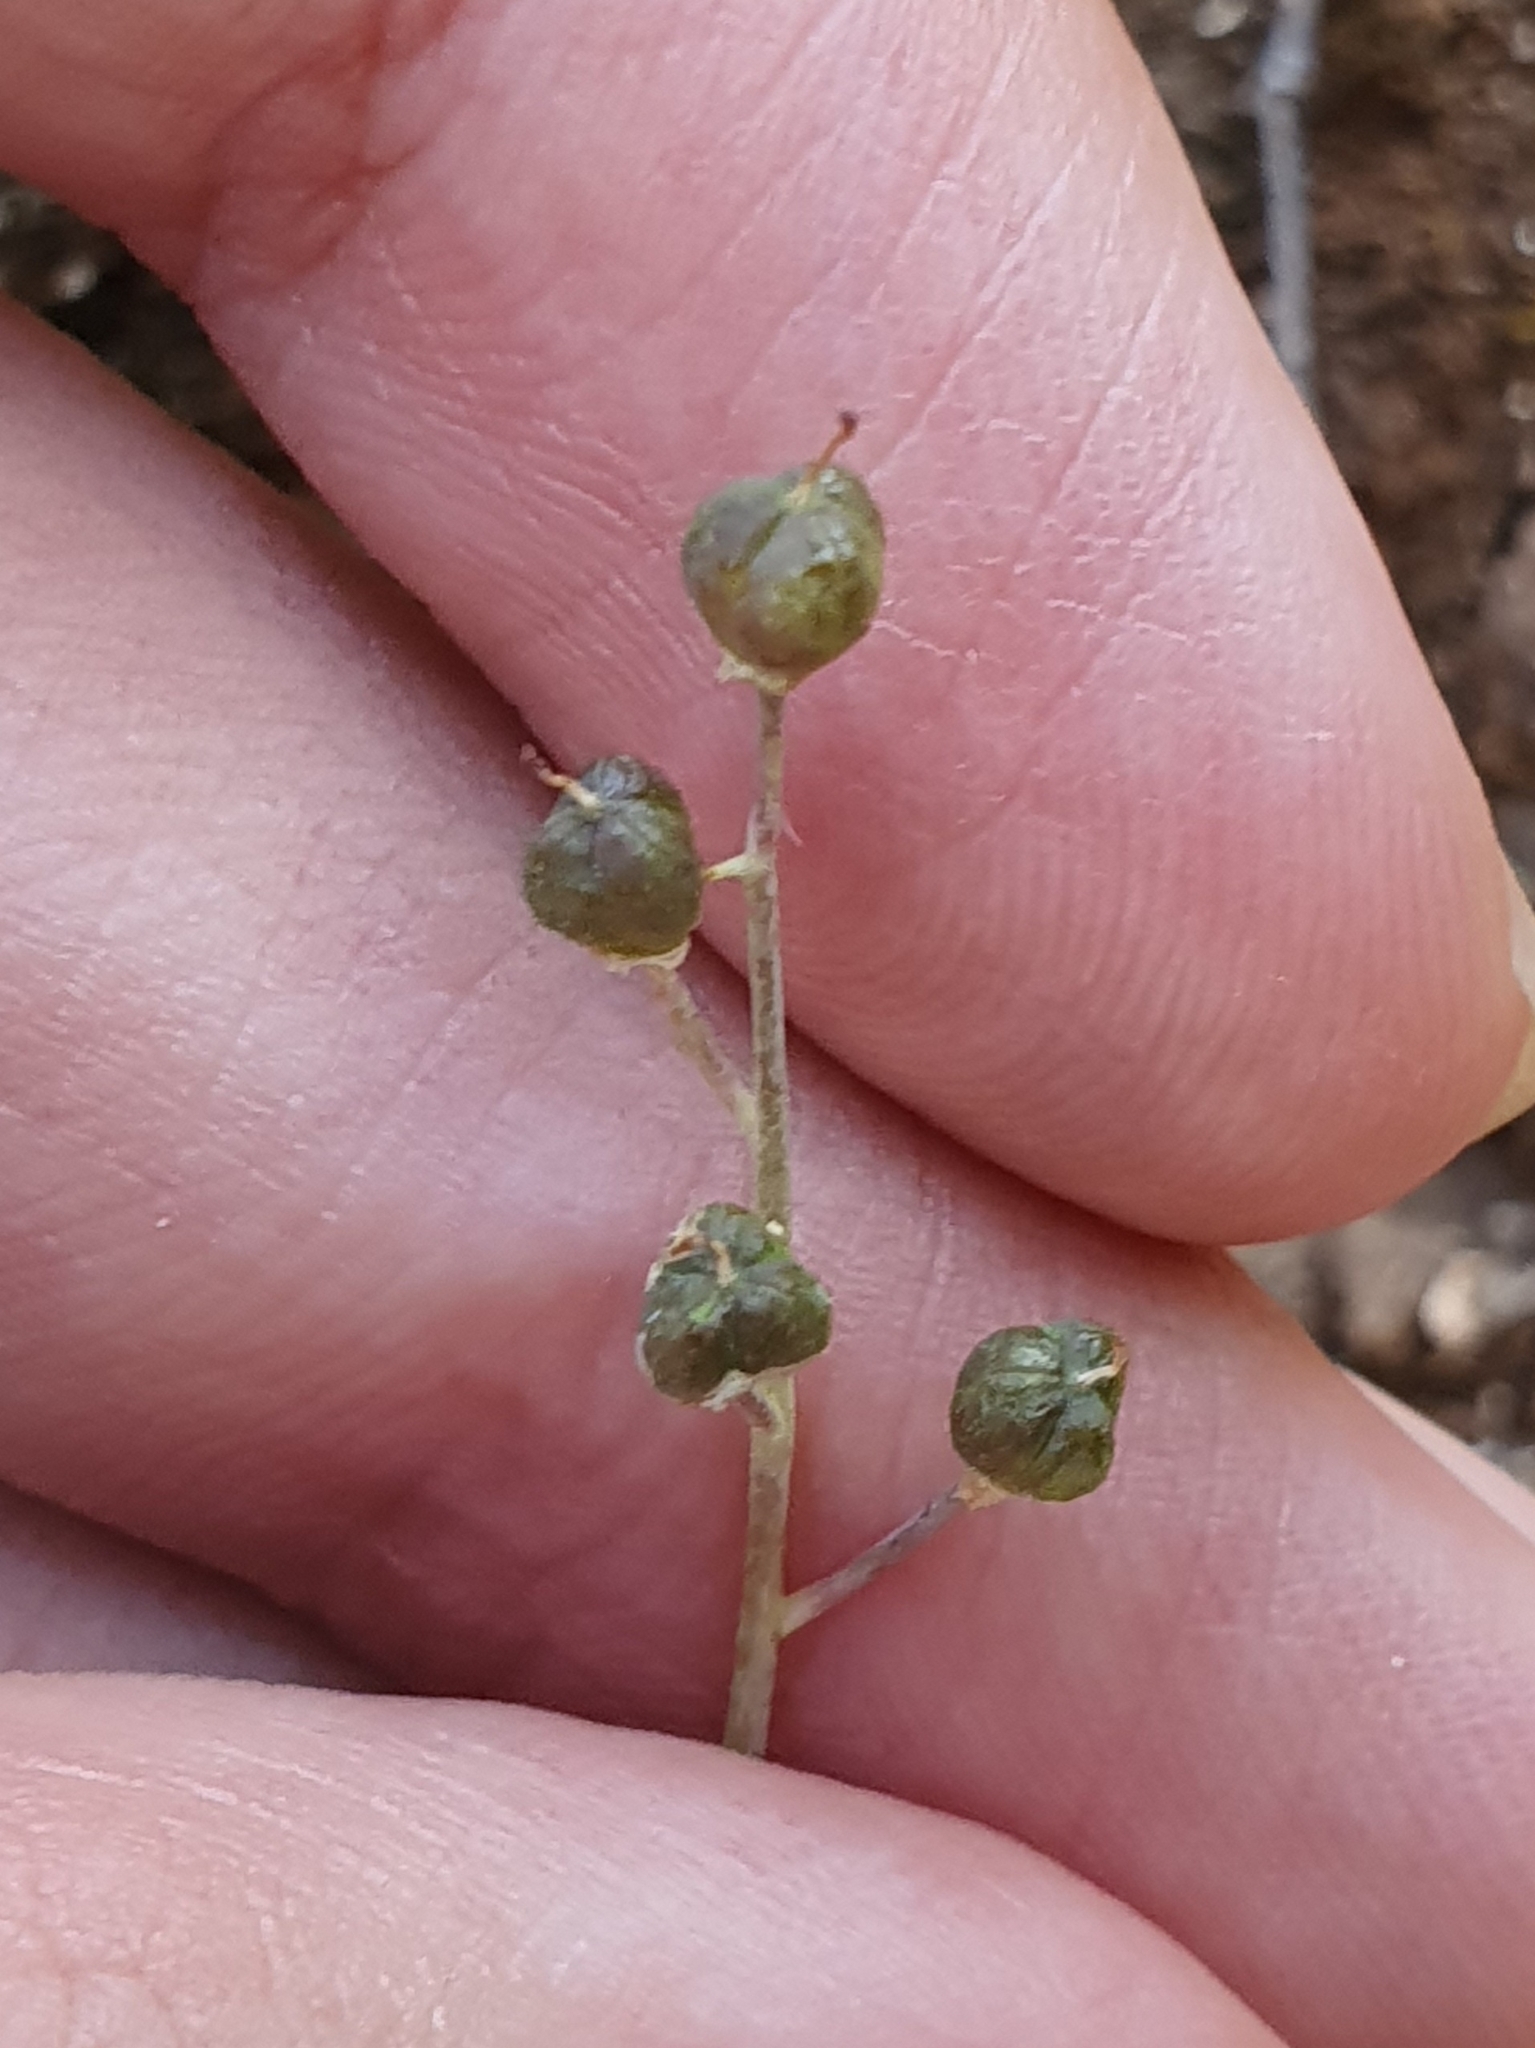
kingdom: Plantae
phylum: Tracheophyta
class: Liliopsida
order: Asparagales
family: Asparagaceae
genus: Prospero
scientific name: Prospero obtusifolium
